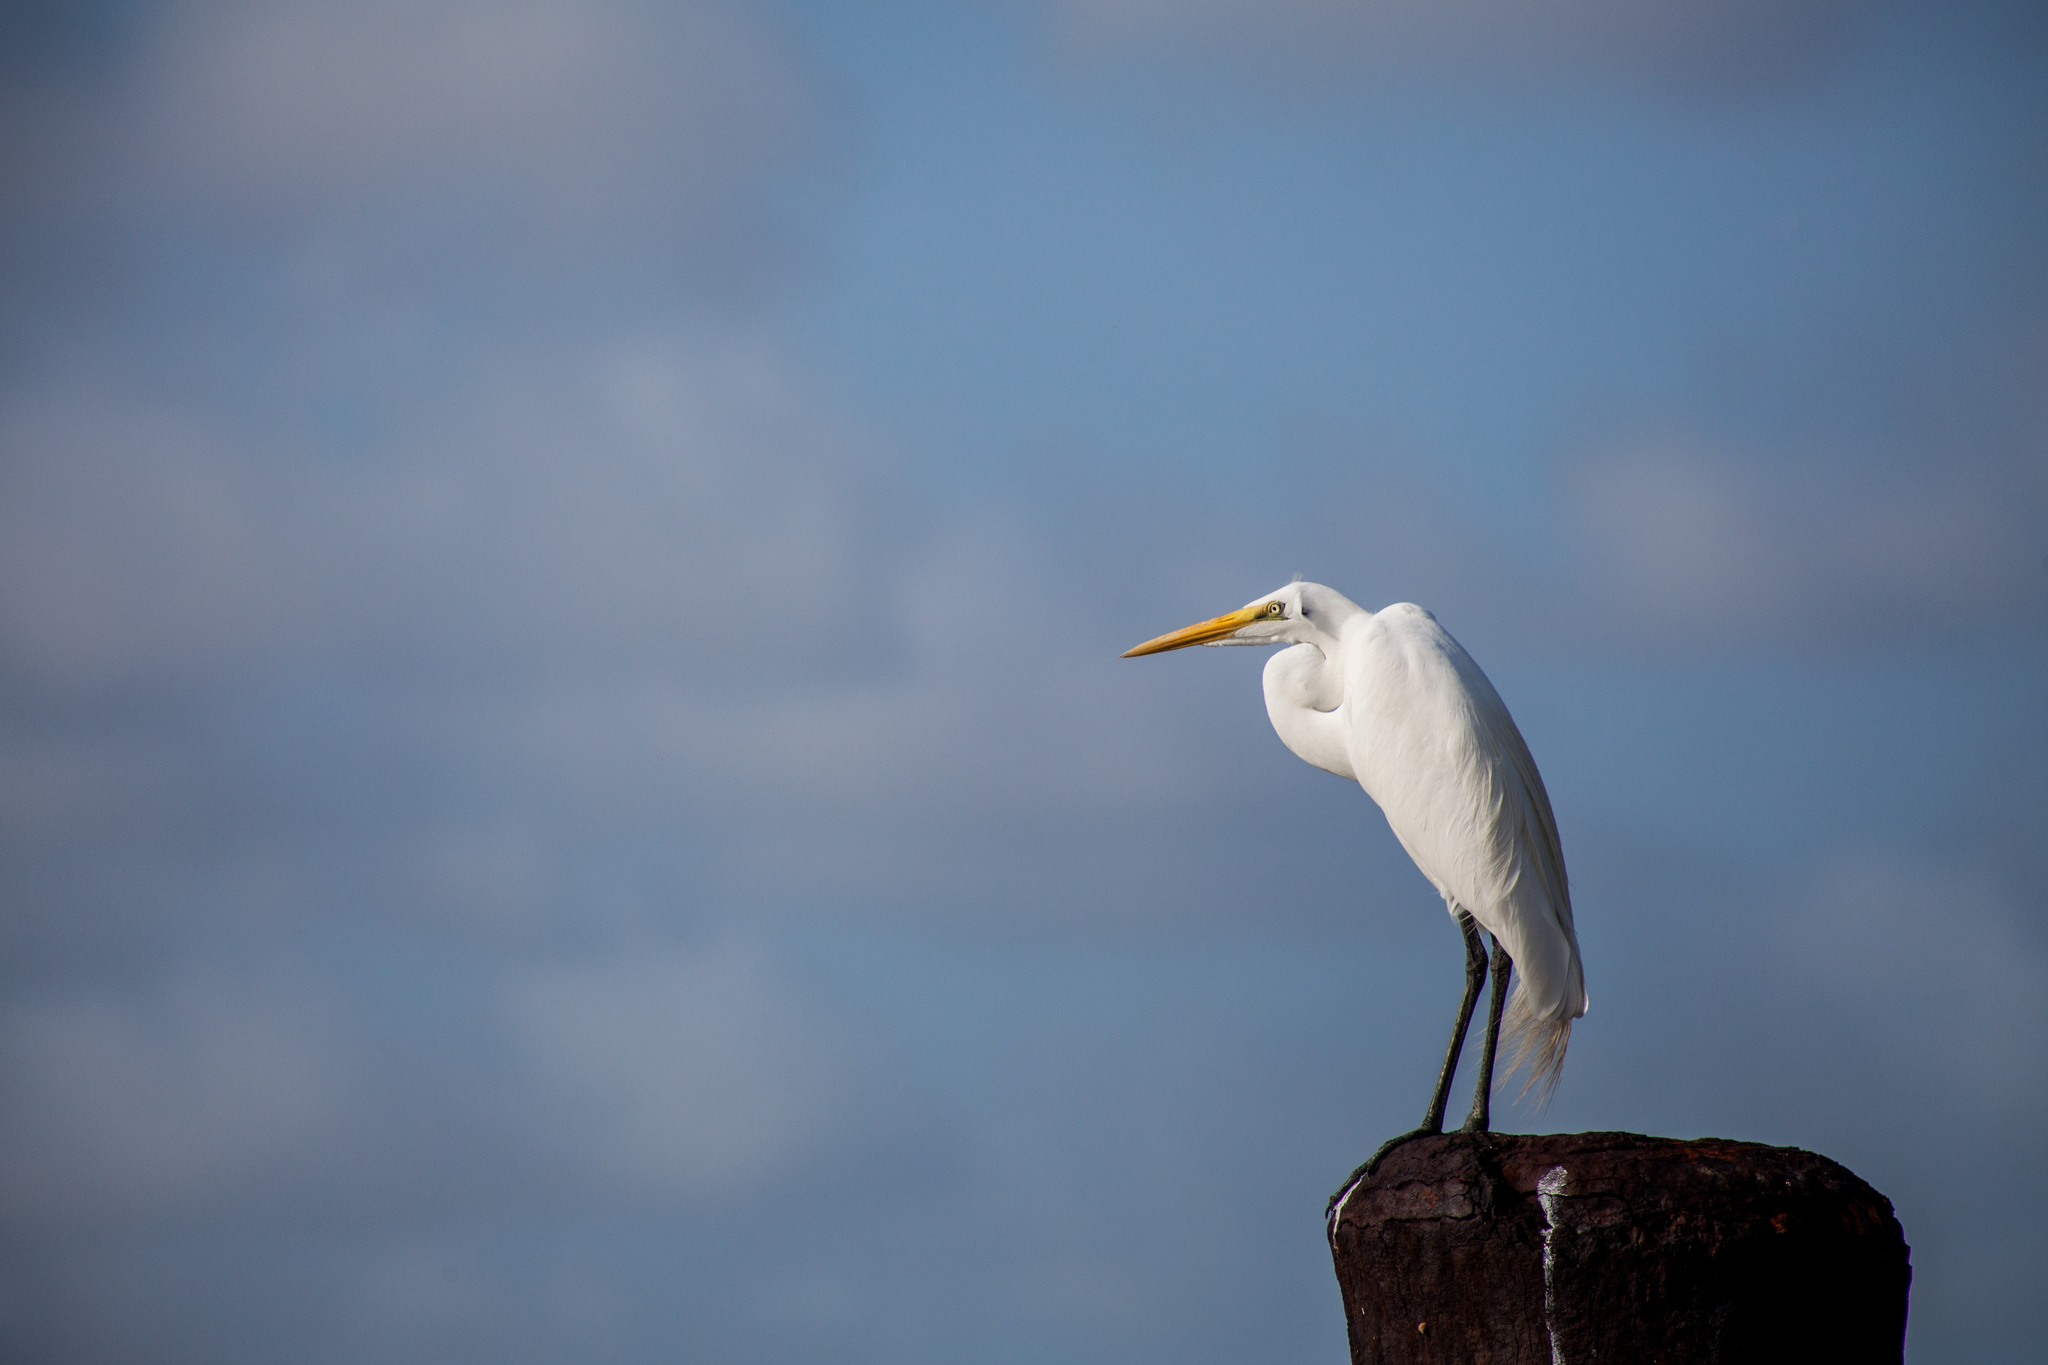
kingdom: Animalia
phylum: Chordata
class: Aves
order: Pelecaniformes
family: Ardeidae
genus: Ardea
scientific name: Ardea alba
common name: Great egret
